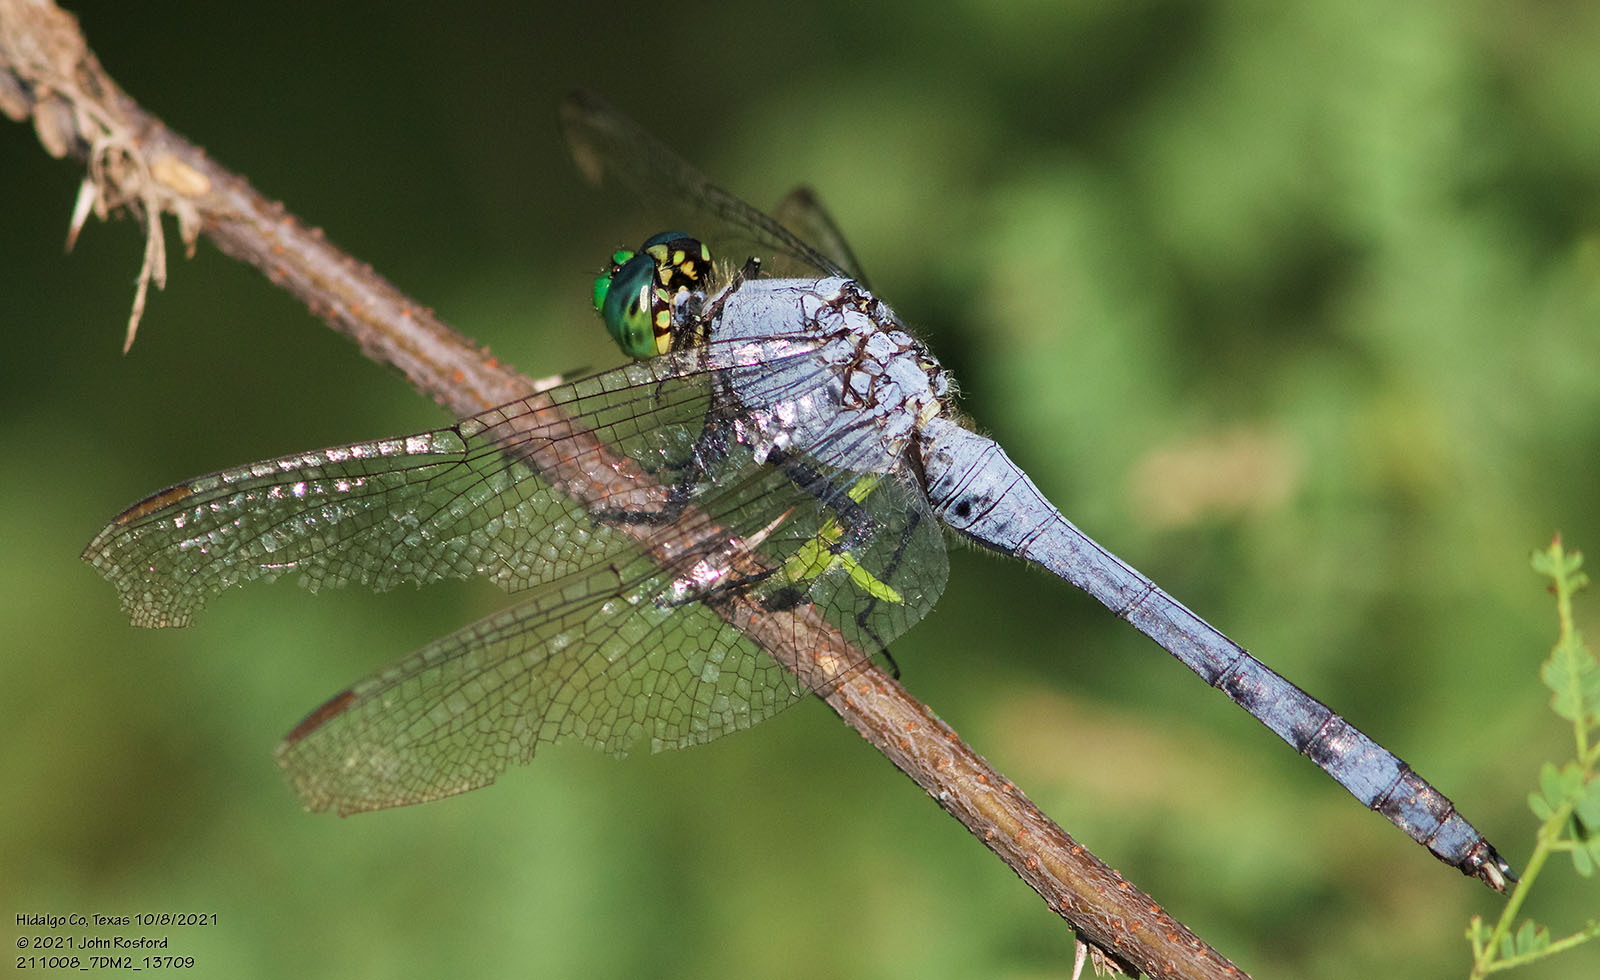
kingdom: Animalia
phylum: Arthropoda
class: Insecta
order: Odonata
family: Libellulidae
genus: Erythemis
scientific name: Erythemis simplicicollis
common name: Eastern pondhawk
